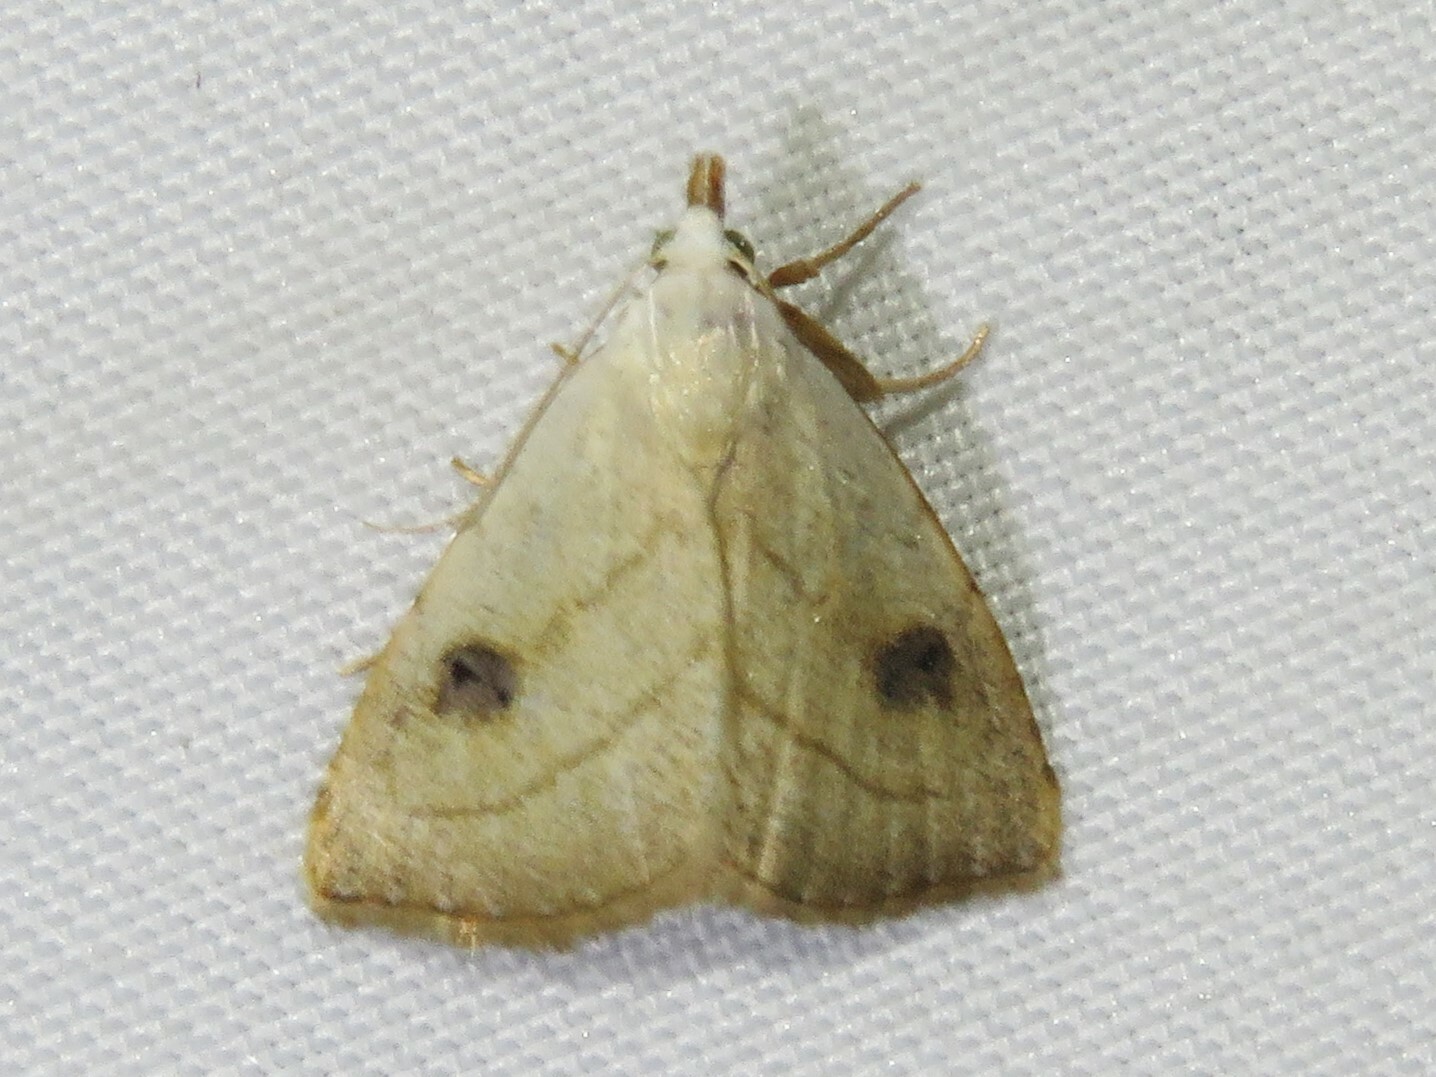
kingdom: Animalia
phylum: Arthropoda
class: Insecta
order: Lepidoptera
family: Erebidae
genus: Rivula
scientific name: Rivula propinqualis
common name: Spotted grass moth
